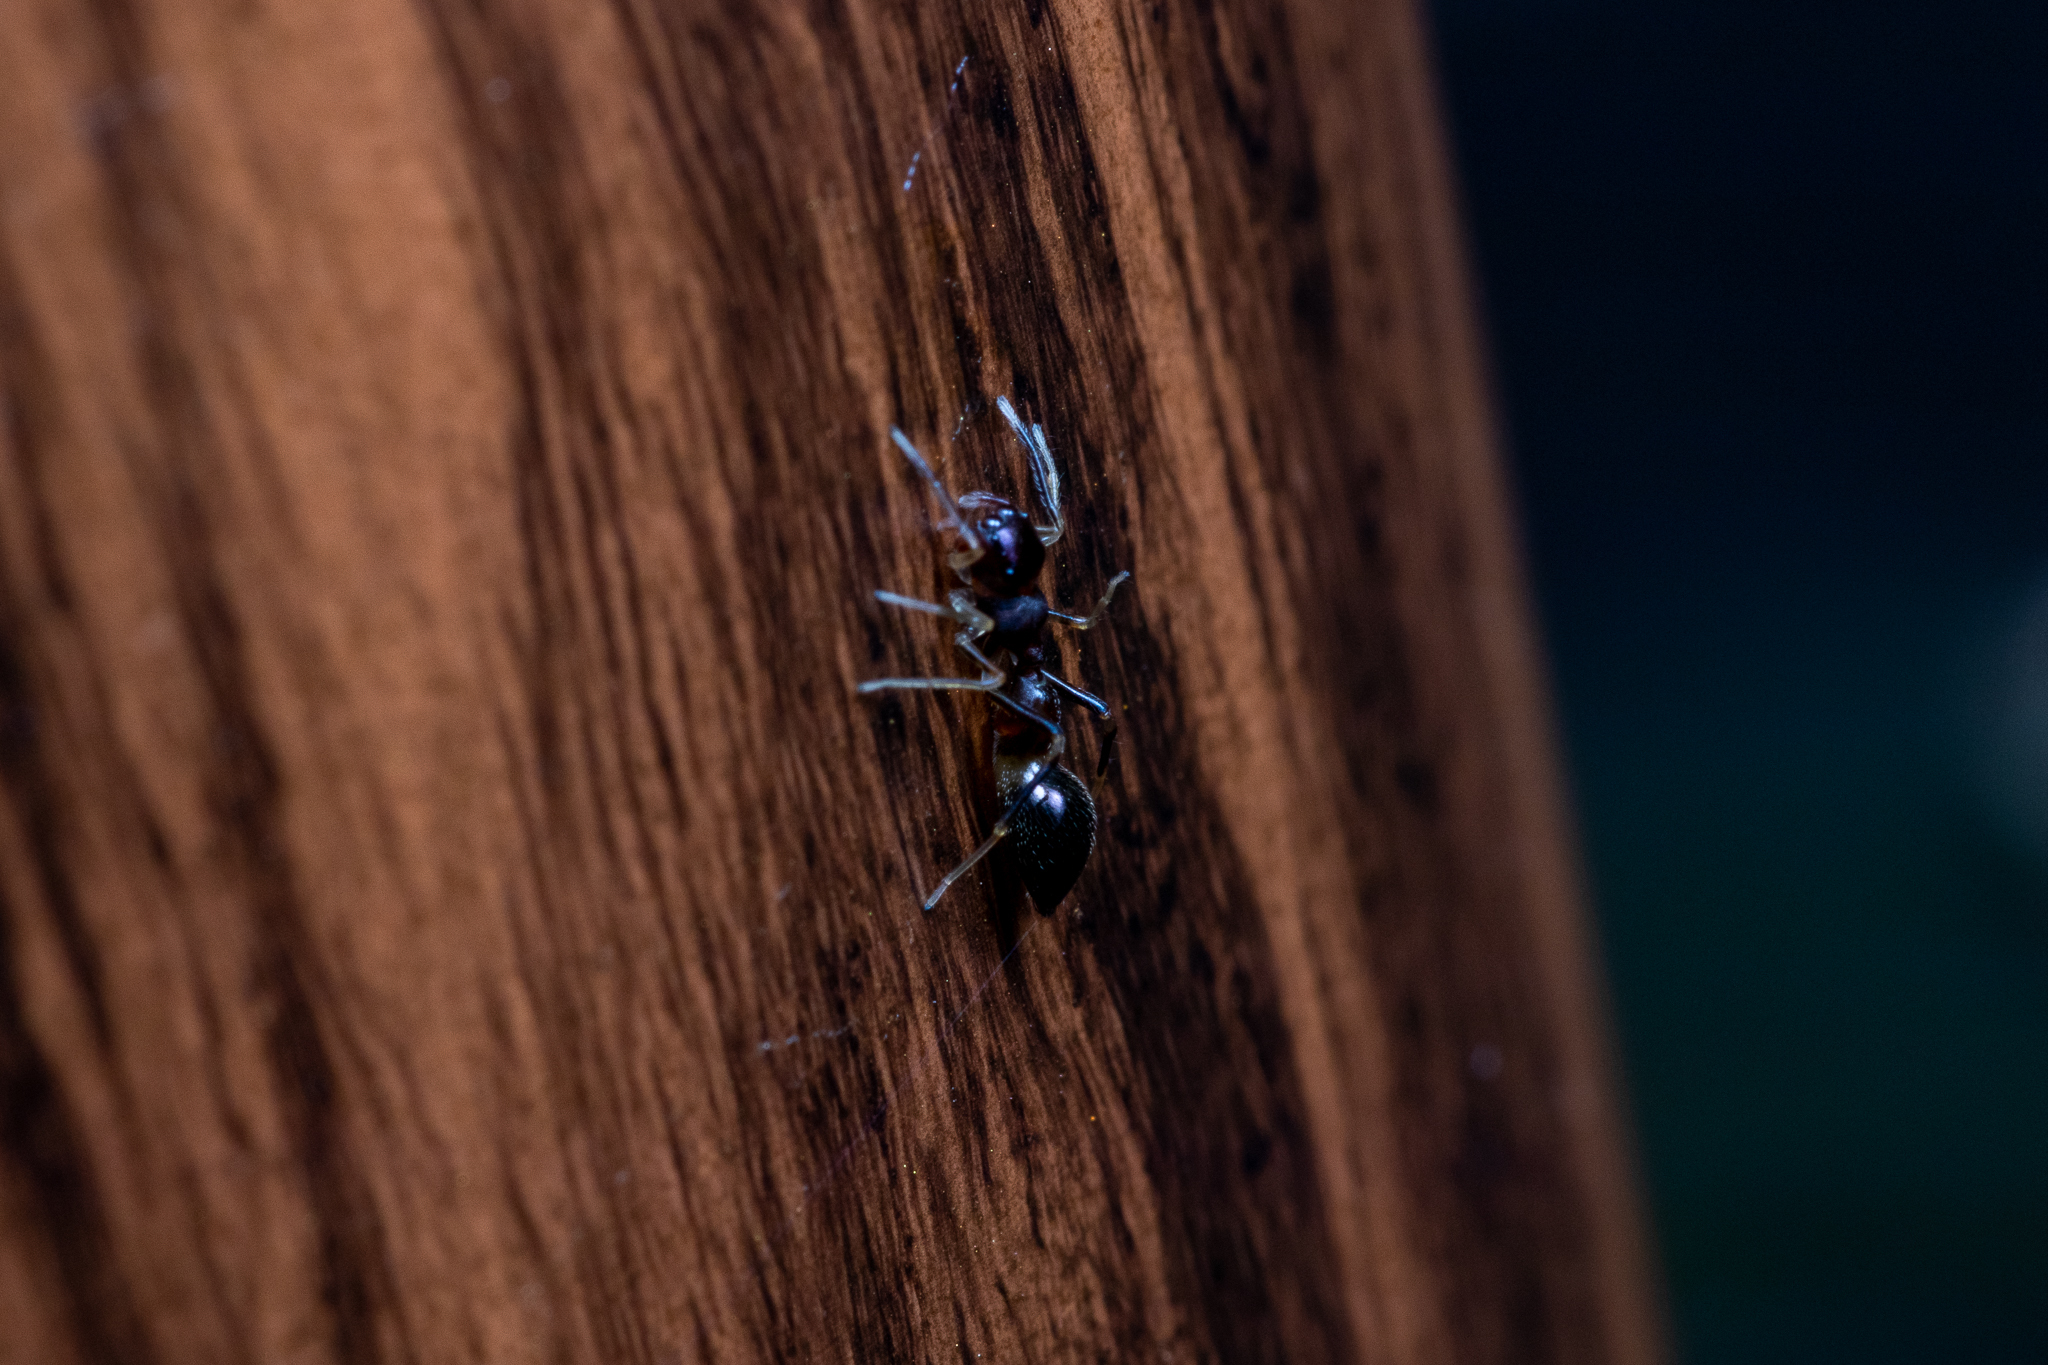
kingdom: Animalia
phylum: Arthropoda
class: Arachnida
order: Araneae
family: Salticidae
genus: Synemosyna
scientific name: Synemosyna formica
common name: Slender ant-mimic jumping spider
